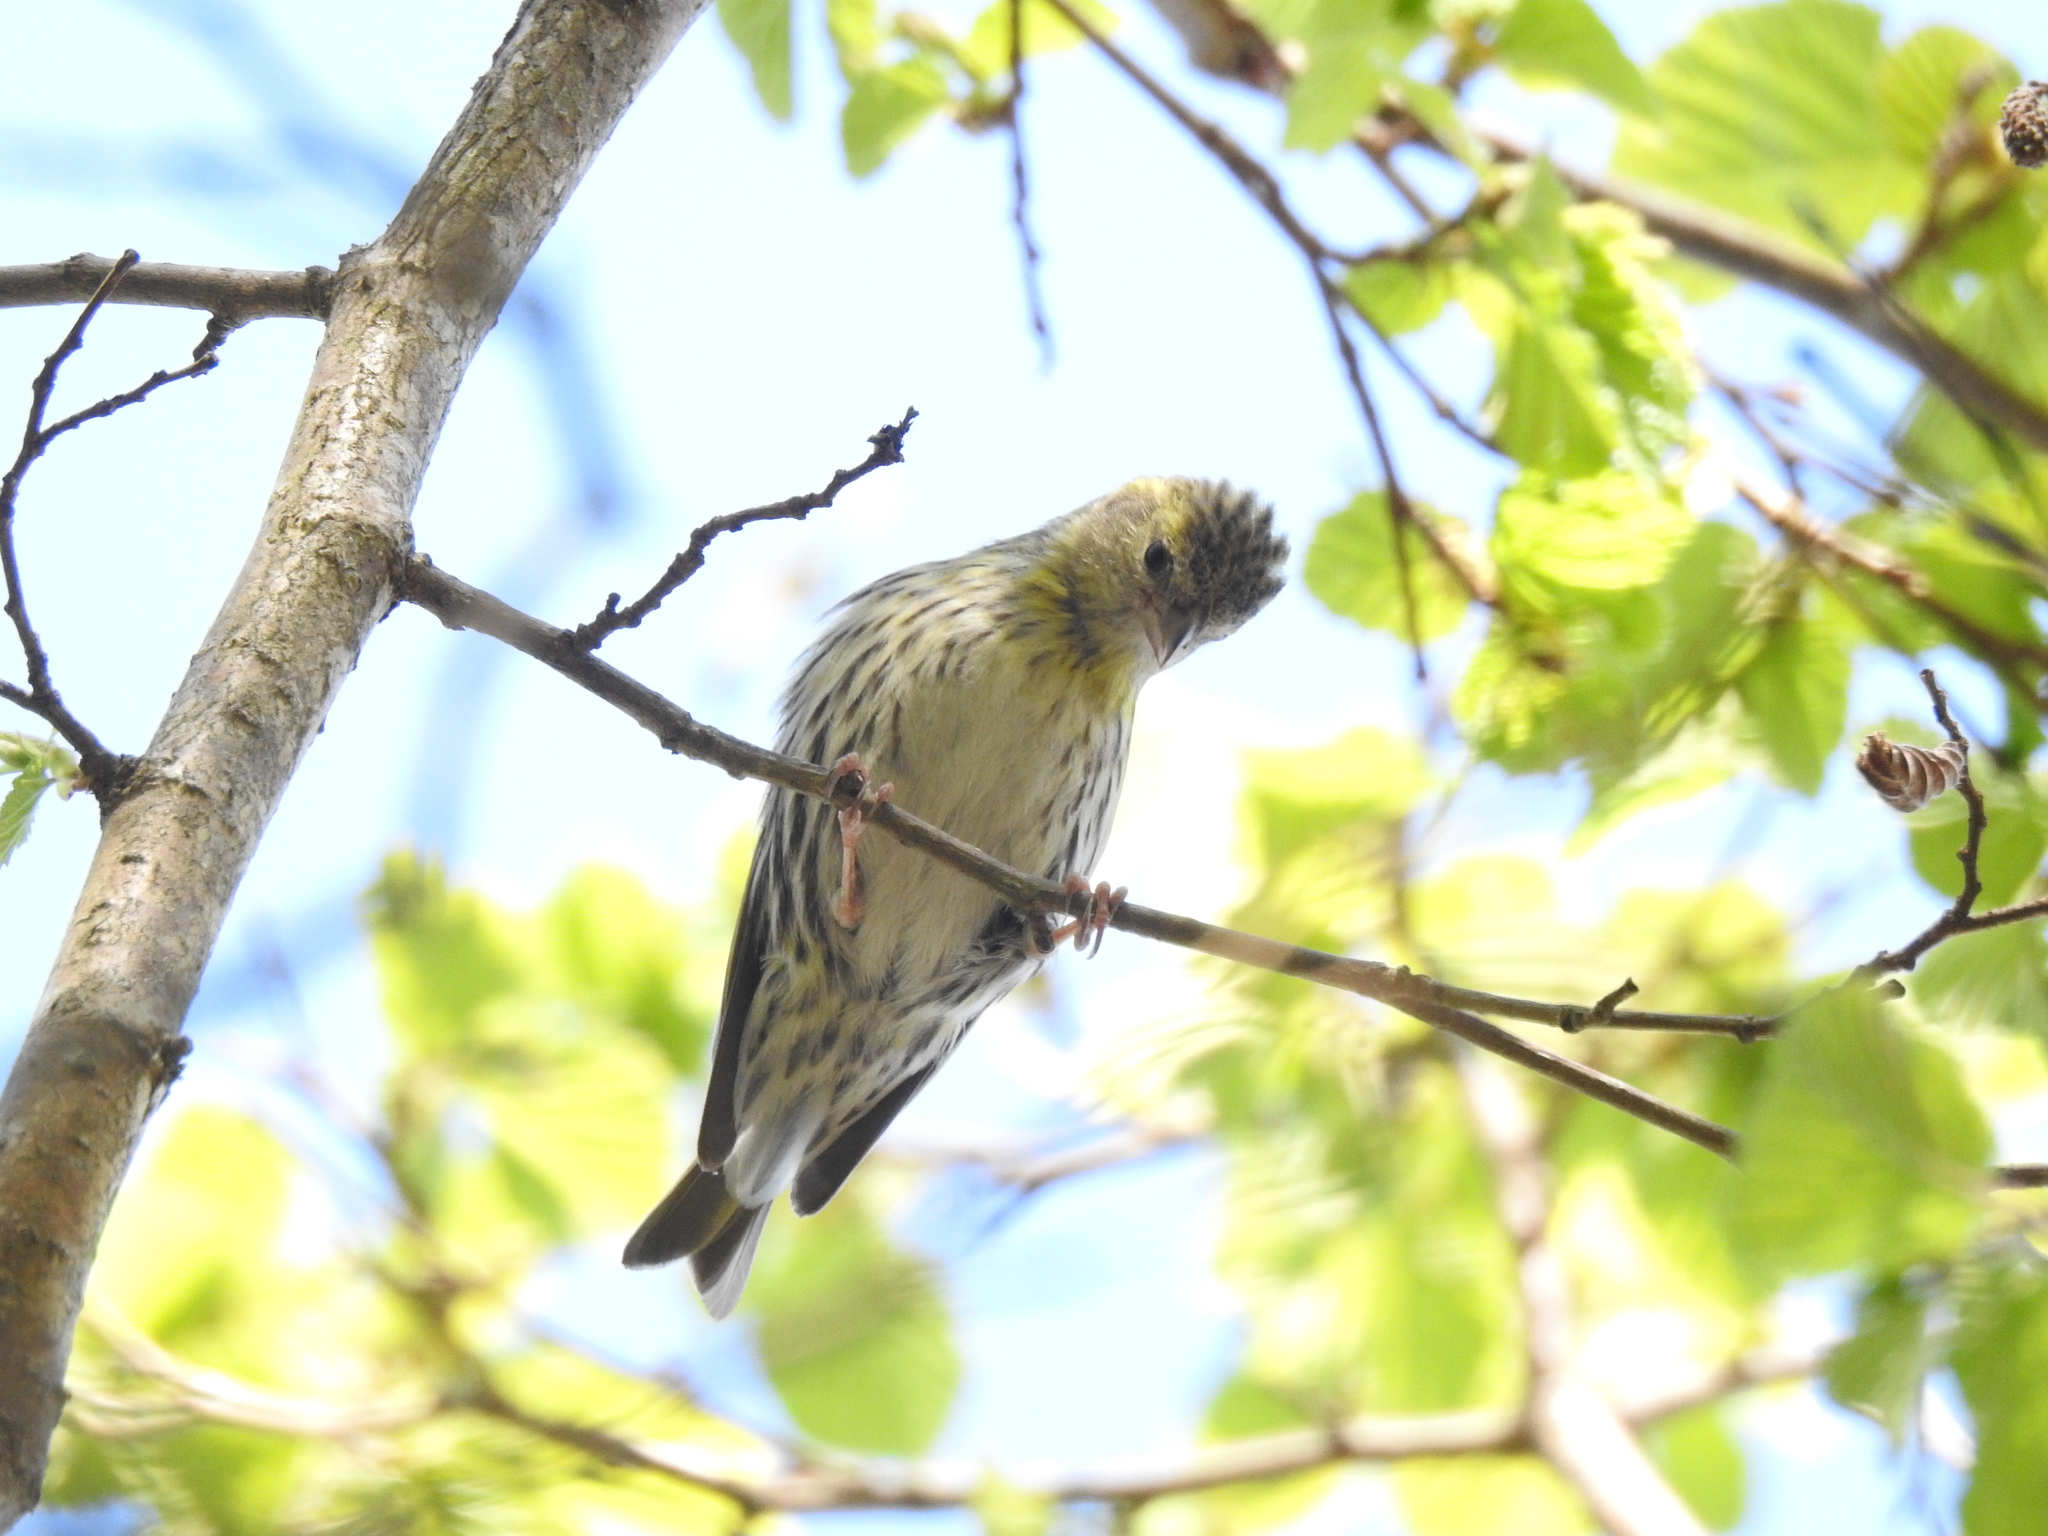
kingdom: Animalia
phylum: Chordata
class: Aves
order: Passeriformes
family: Fringillidae
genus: Spinus
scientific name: Spinus spinus
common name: Eurasian siskin
